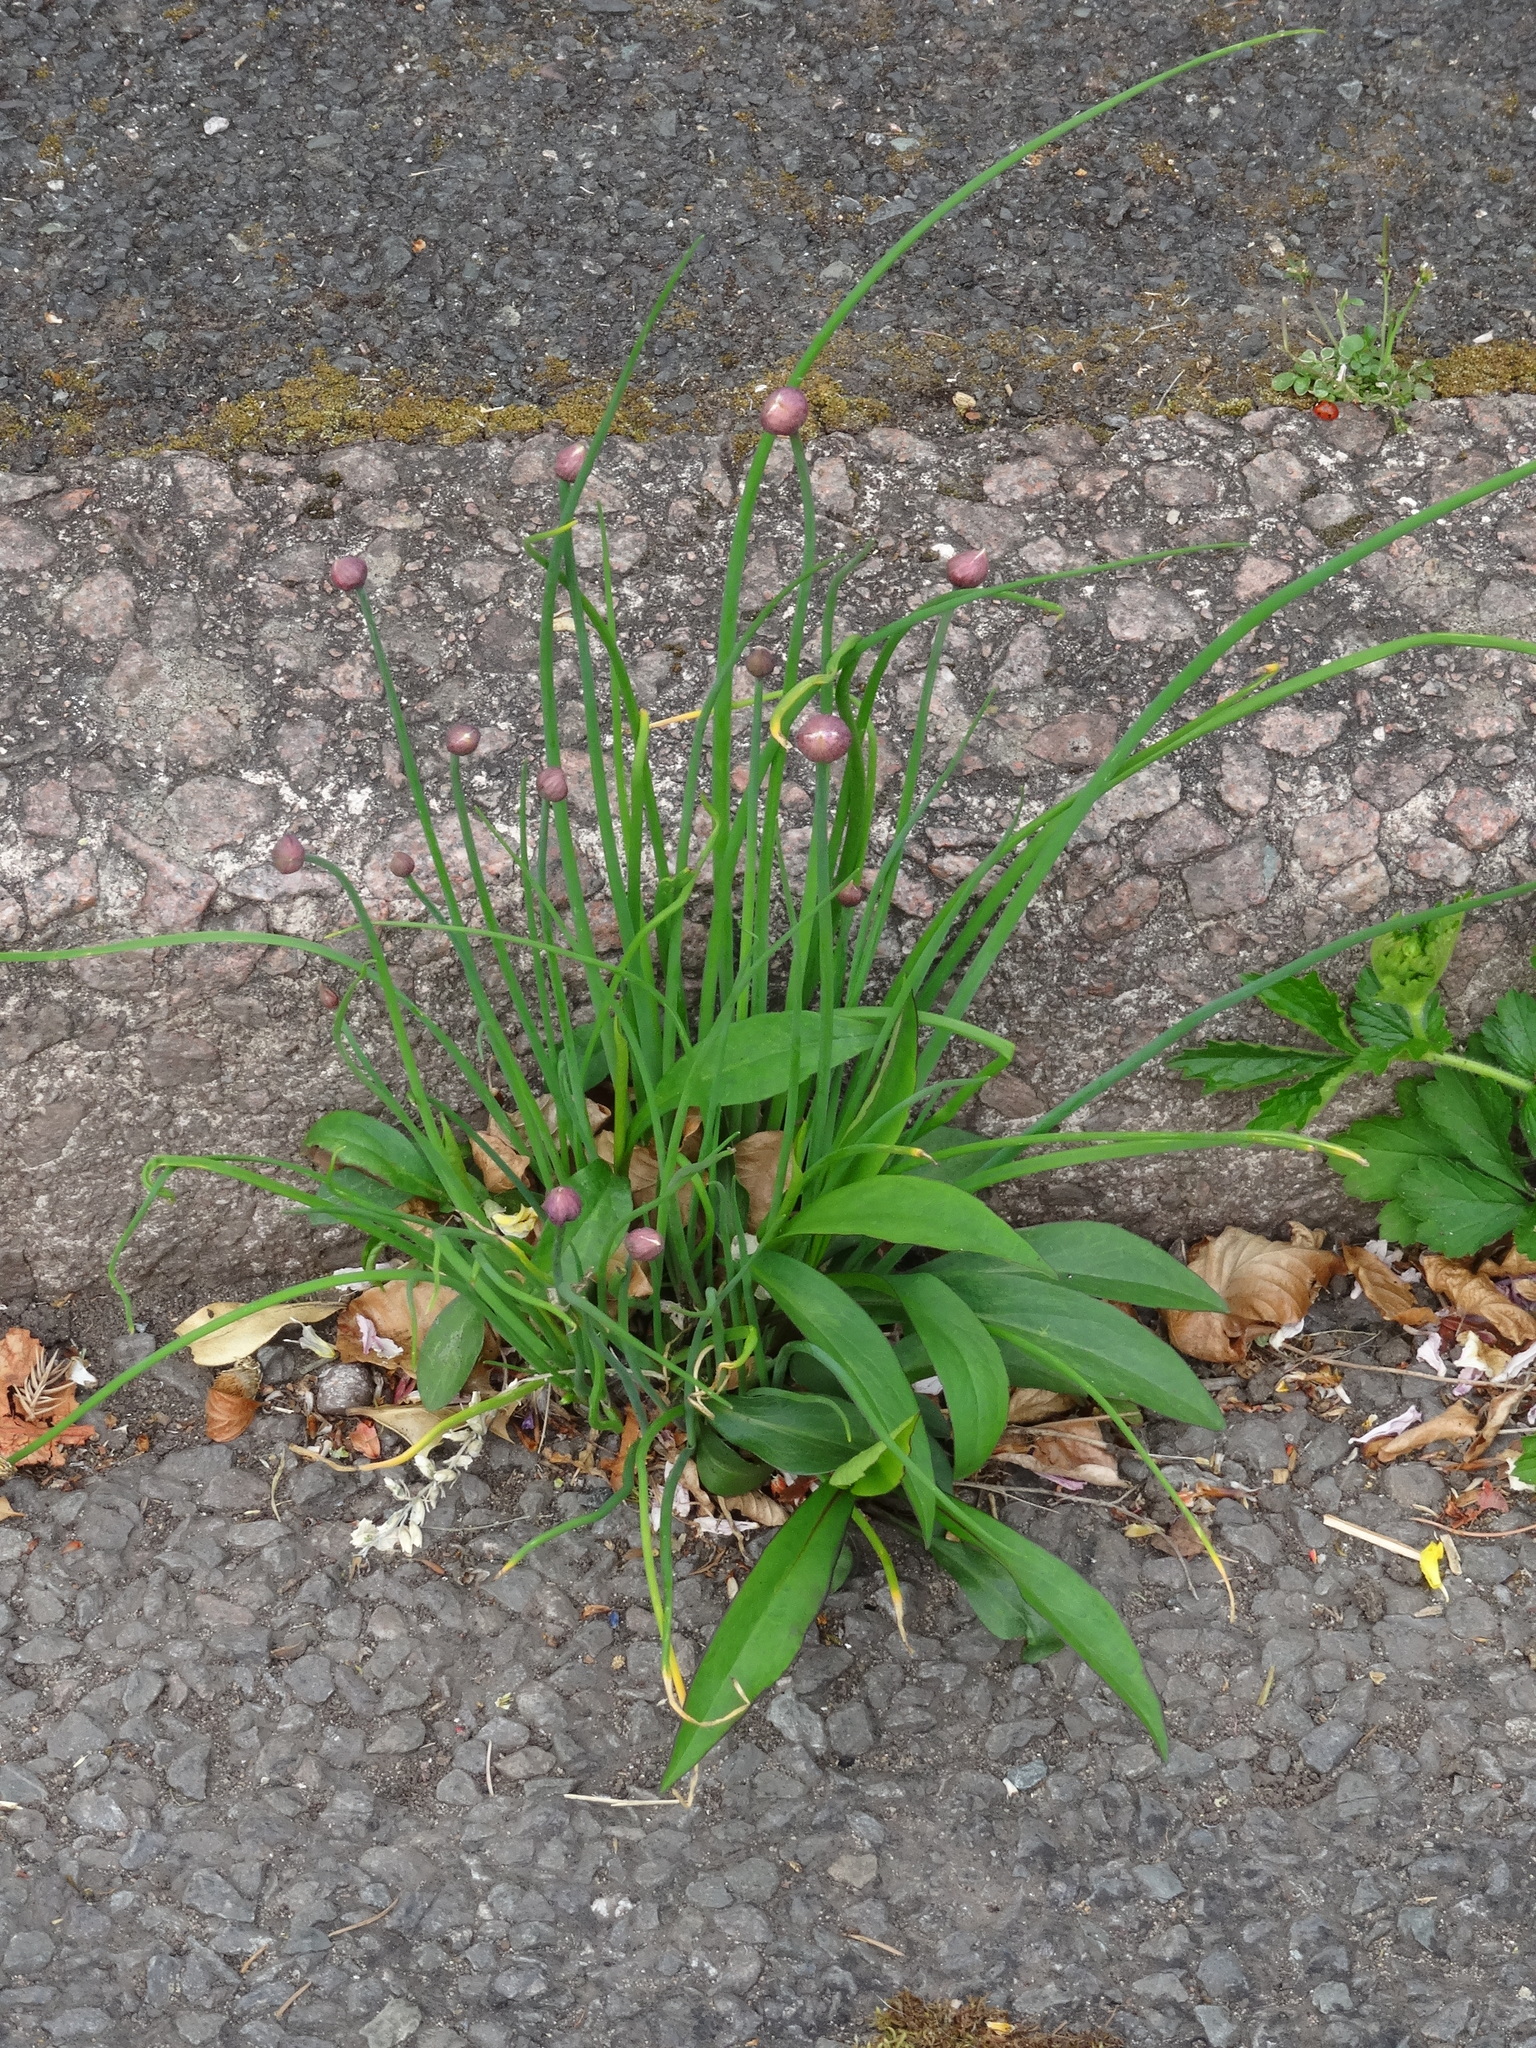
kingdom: Plantae
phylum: Tracheophyta
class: Liliopsida
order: Asparagales
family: Amaryllidaceae
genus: Allium
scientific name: Allium schoenoprasum
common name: Chives
